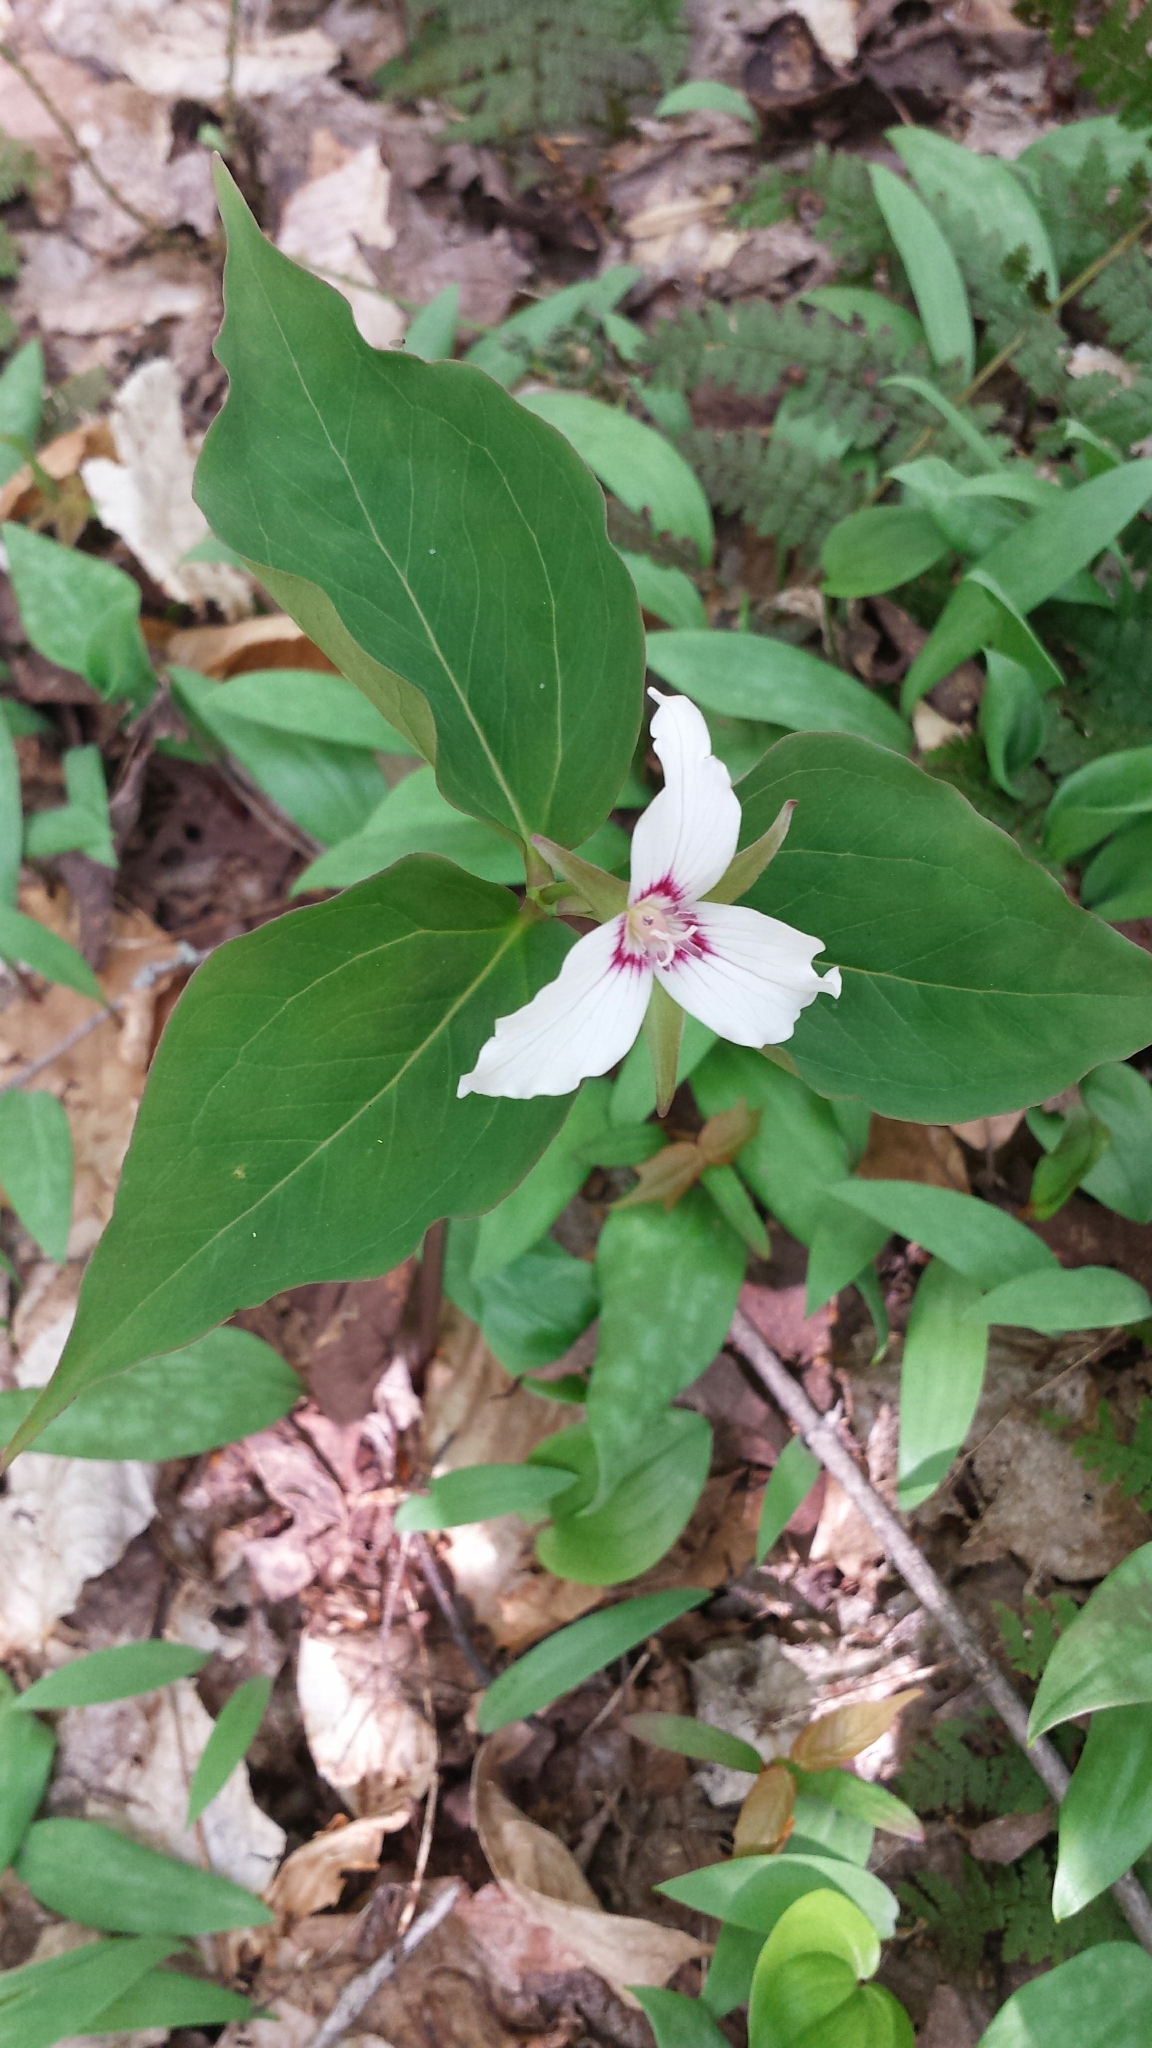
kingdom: Plantae
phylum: Tracheophyta
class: Liliopsida
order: Liliales
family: Melanthiaceae
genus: Trillium
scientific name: Trillium undulatum
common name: Paint trillium
